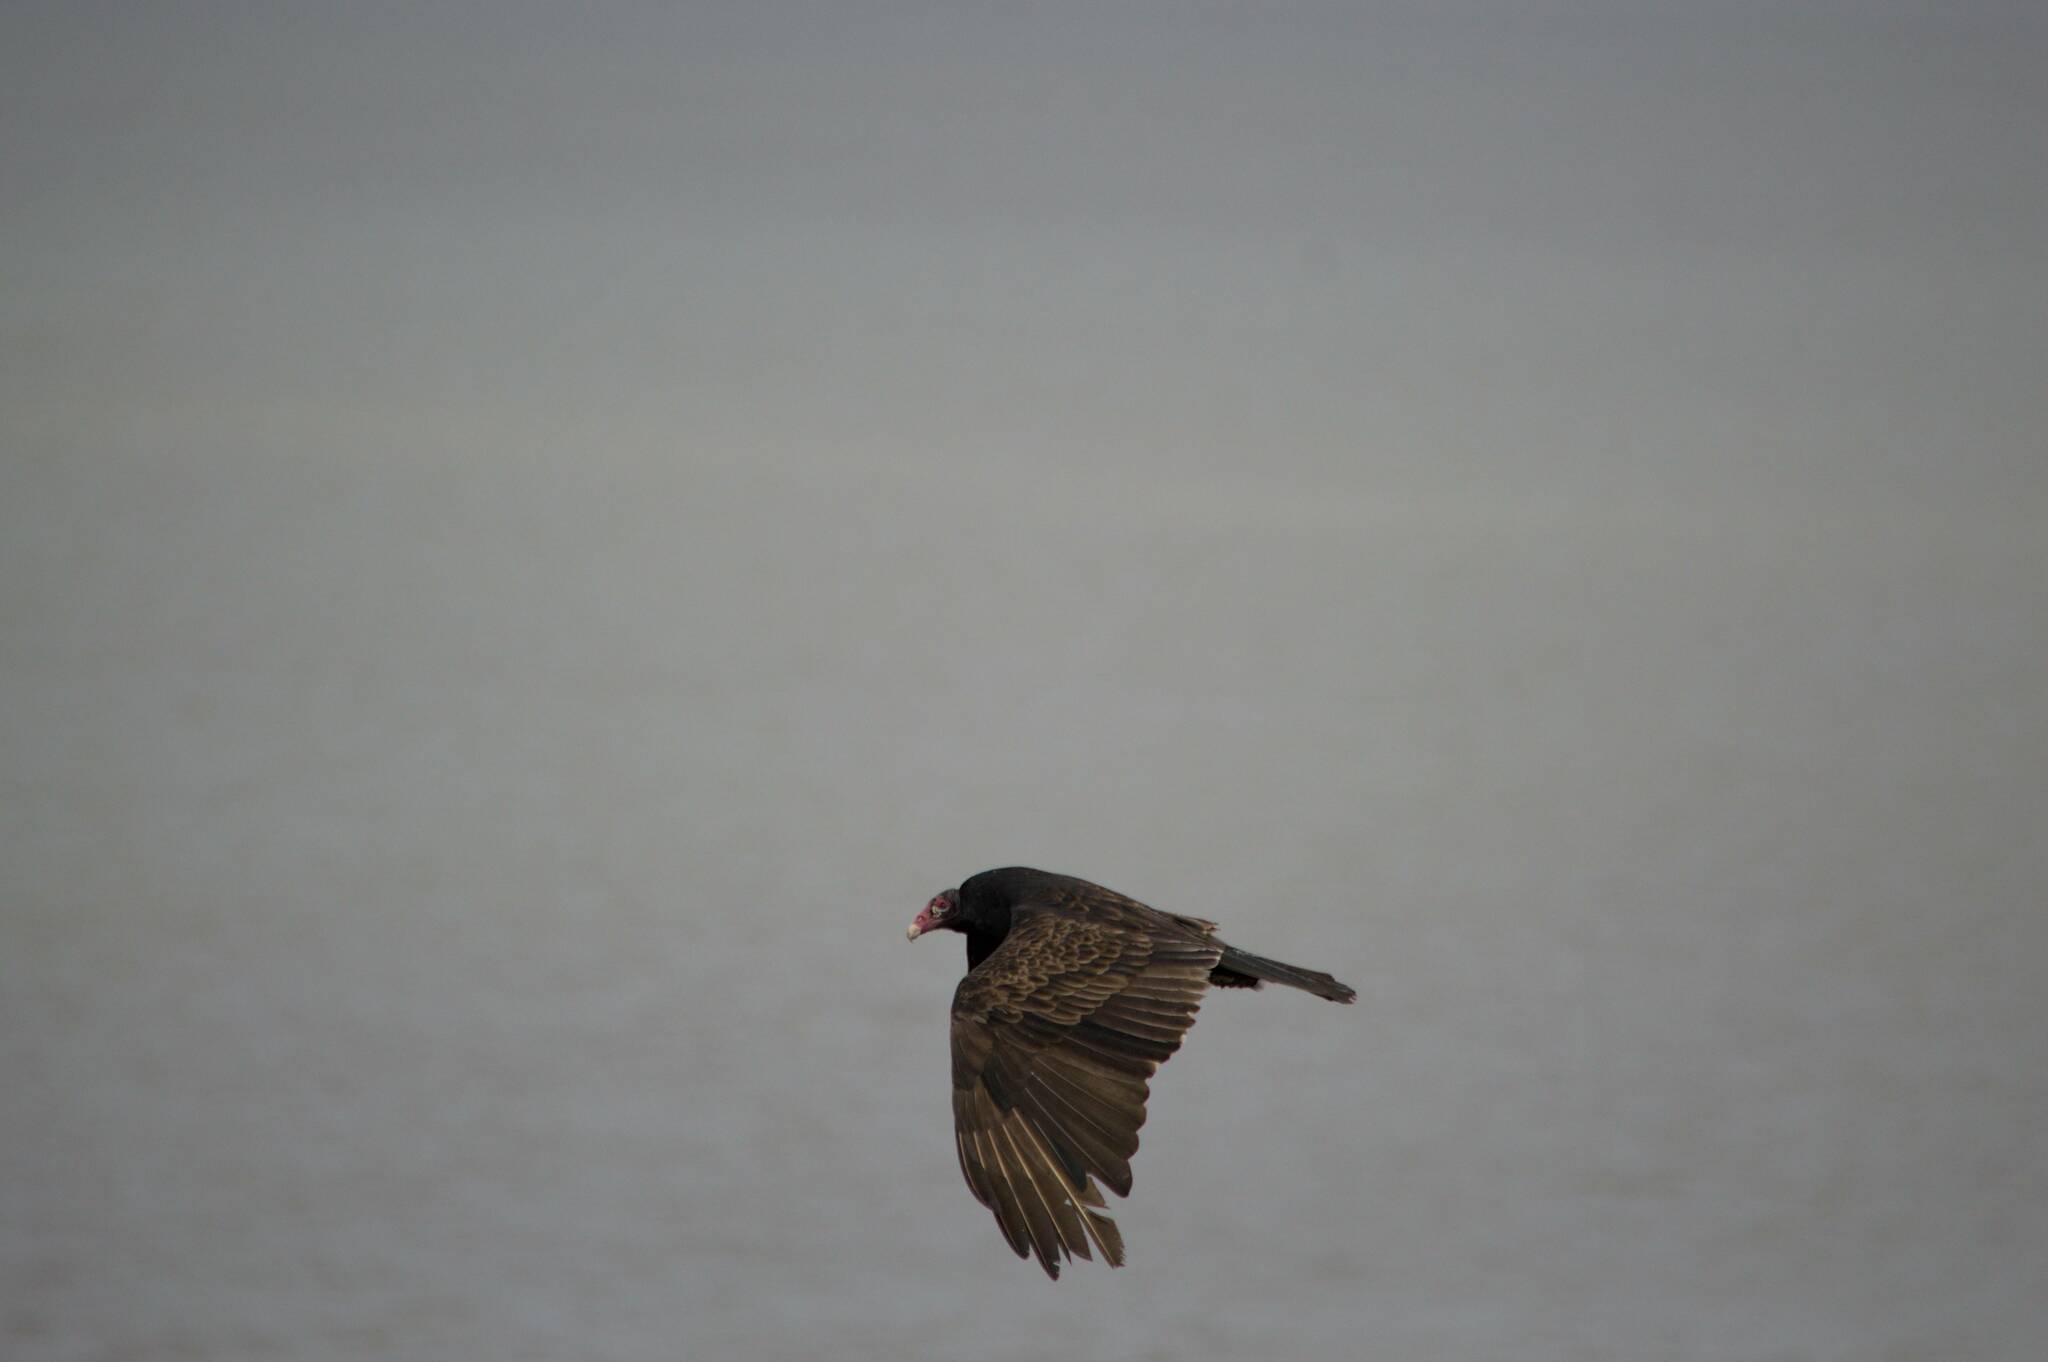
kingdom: Animalia
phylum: Chordata
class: Aves
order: Accipitriformes
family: Cathartidae
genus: Cathartes
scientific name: Cathartes aura
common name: Turkey vulture
